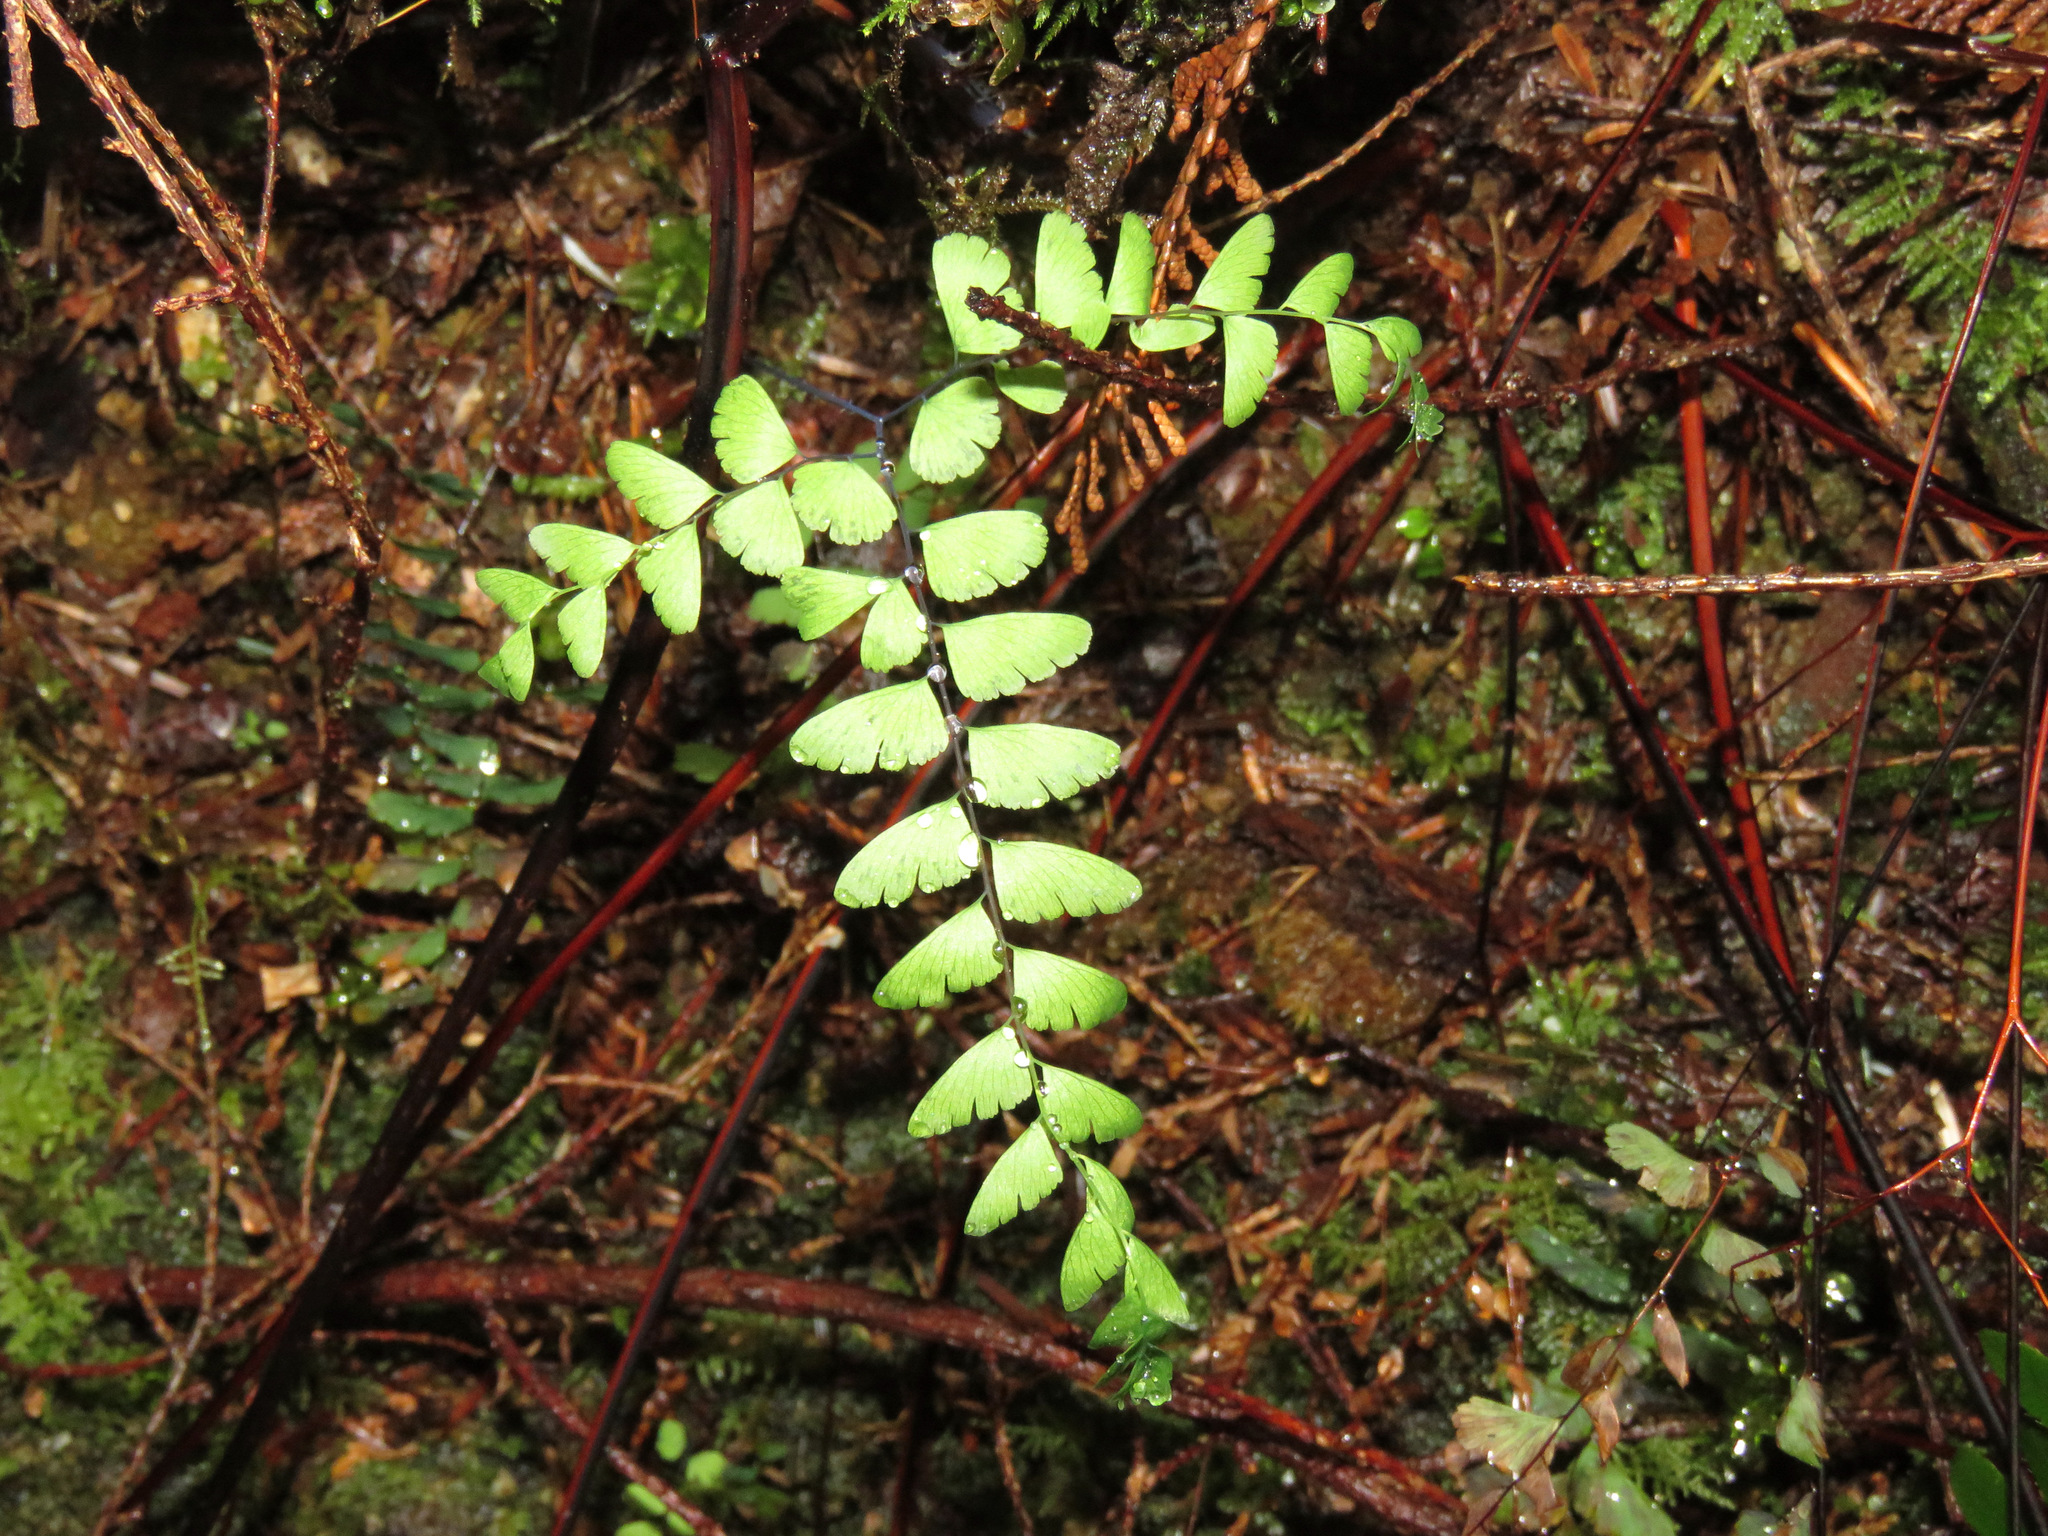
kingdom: Plantae
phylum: Tracheophyta
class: Polypodiopsida
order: Polypodiales
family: Pteridaceae
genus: Adiantum
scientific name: Adiantum aleuticum
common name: Aleutian maidenhair fern
